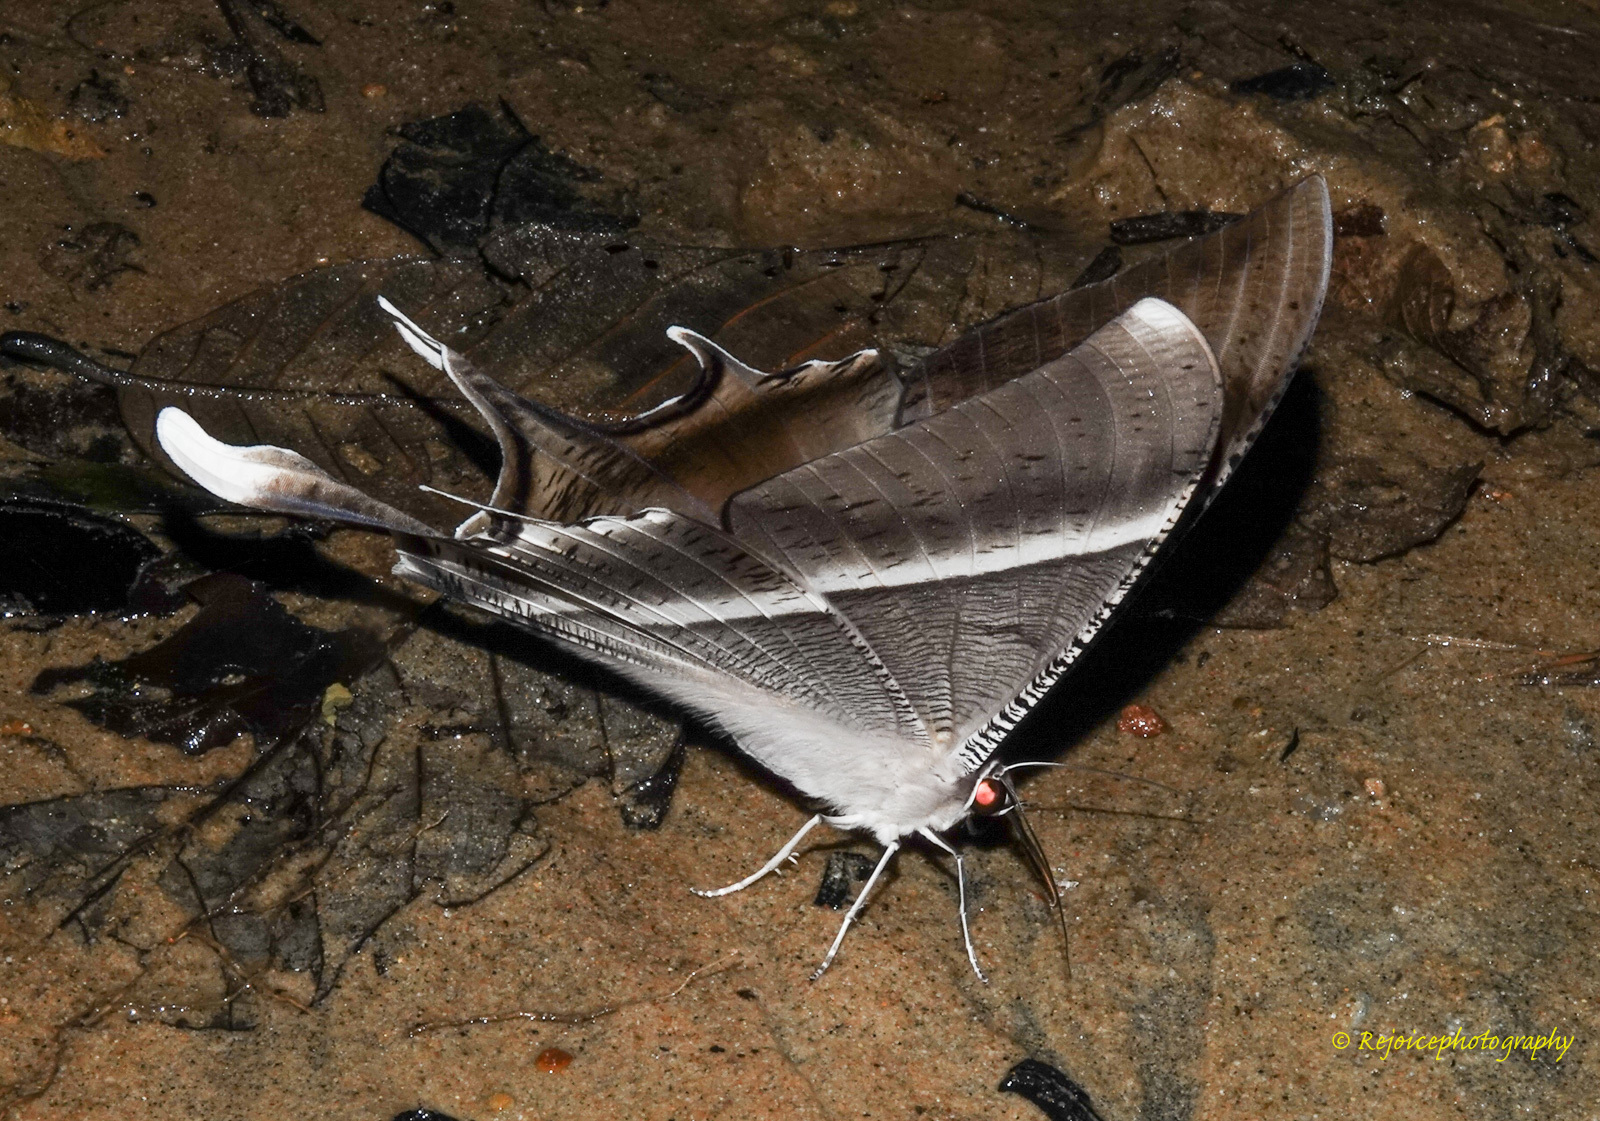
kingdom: Animalia
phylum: Arthropoda
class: Insecta
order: Lepidoptera
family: Uraniidae
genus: Lyssa
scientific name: Lyssa zampa
